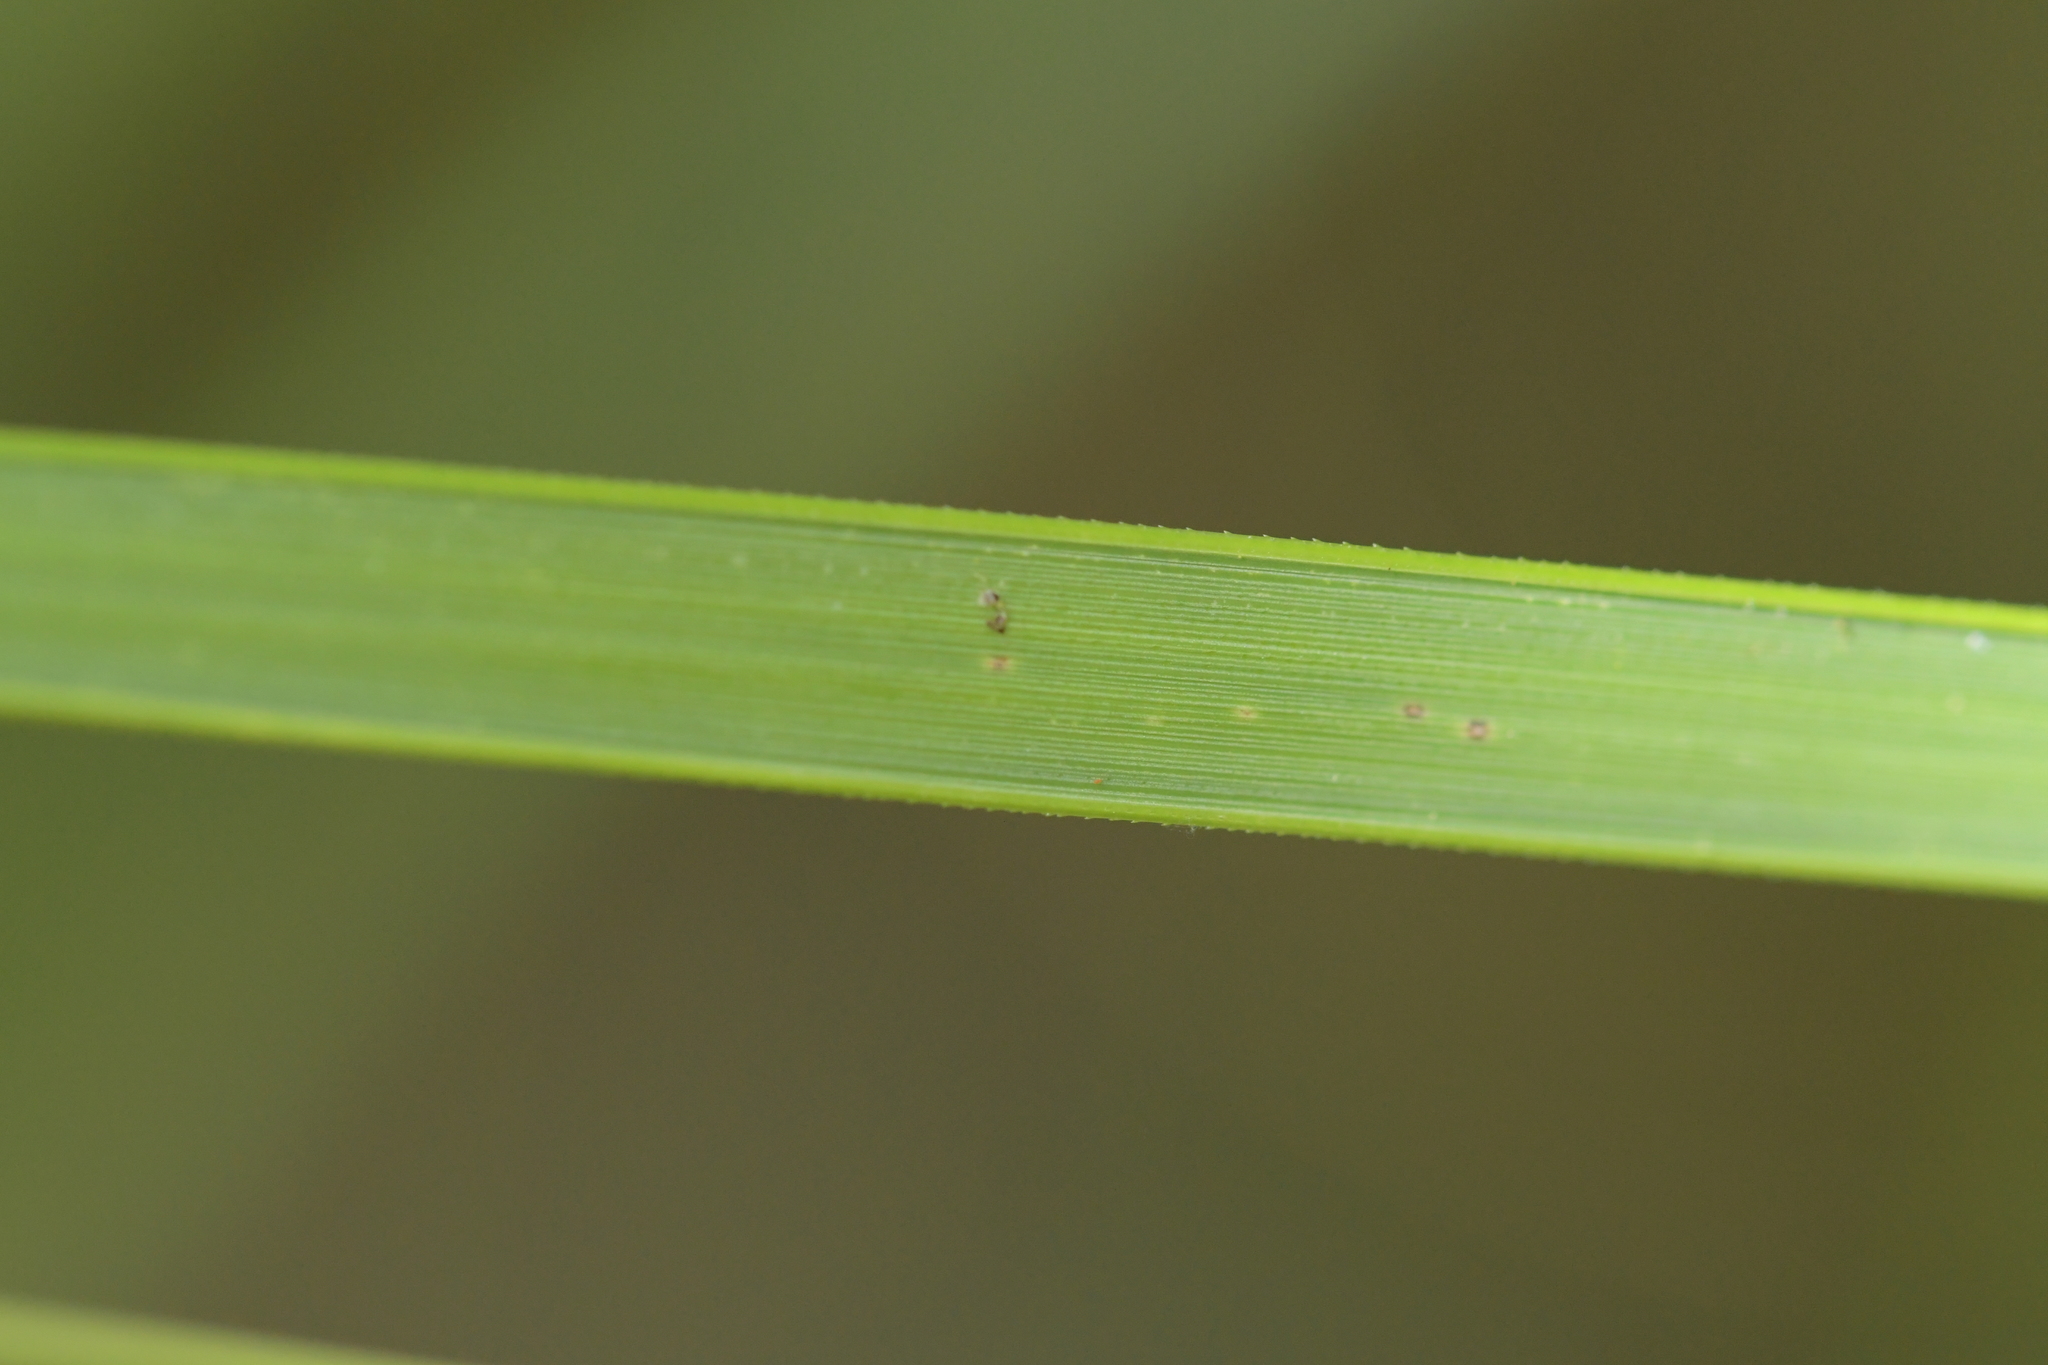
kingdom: Plantae
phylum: Tracheophyta
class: Liliopsida
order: Poales
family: Cyperaceae
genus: Gahnia
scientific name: Gahnia pauciflora
